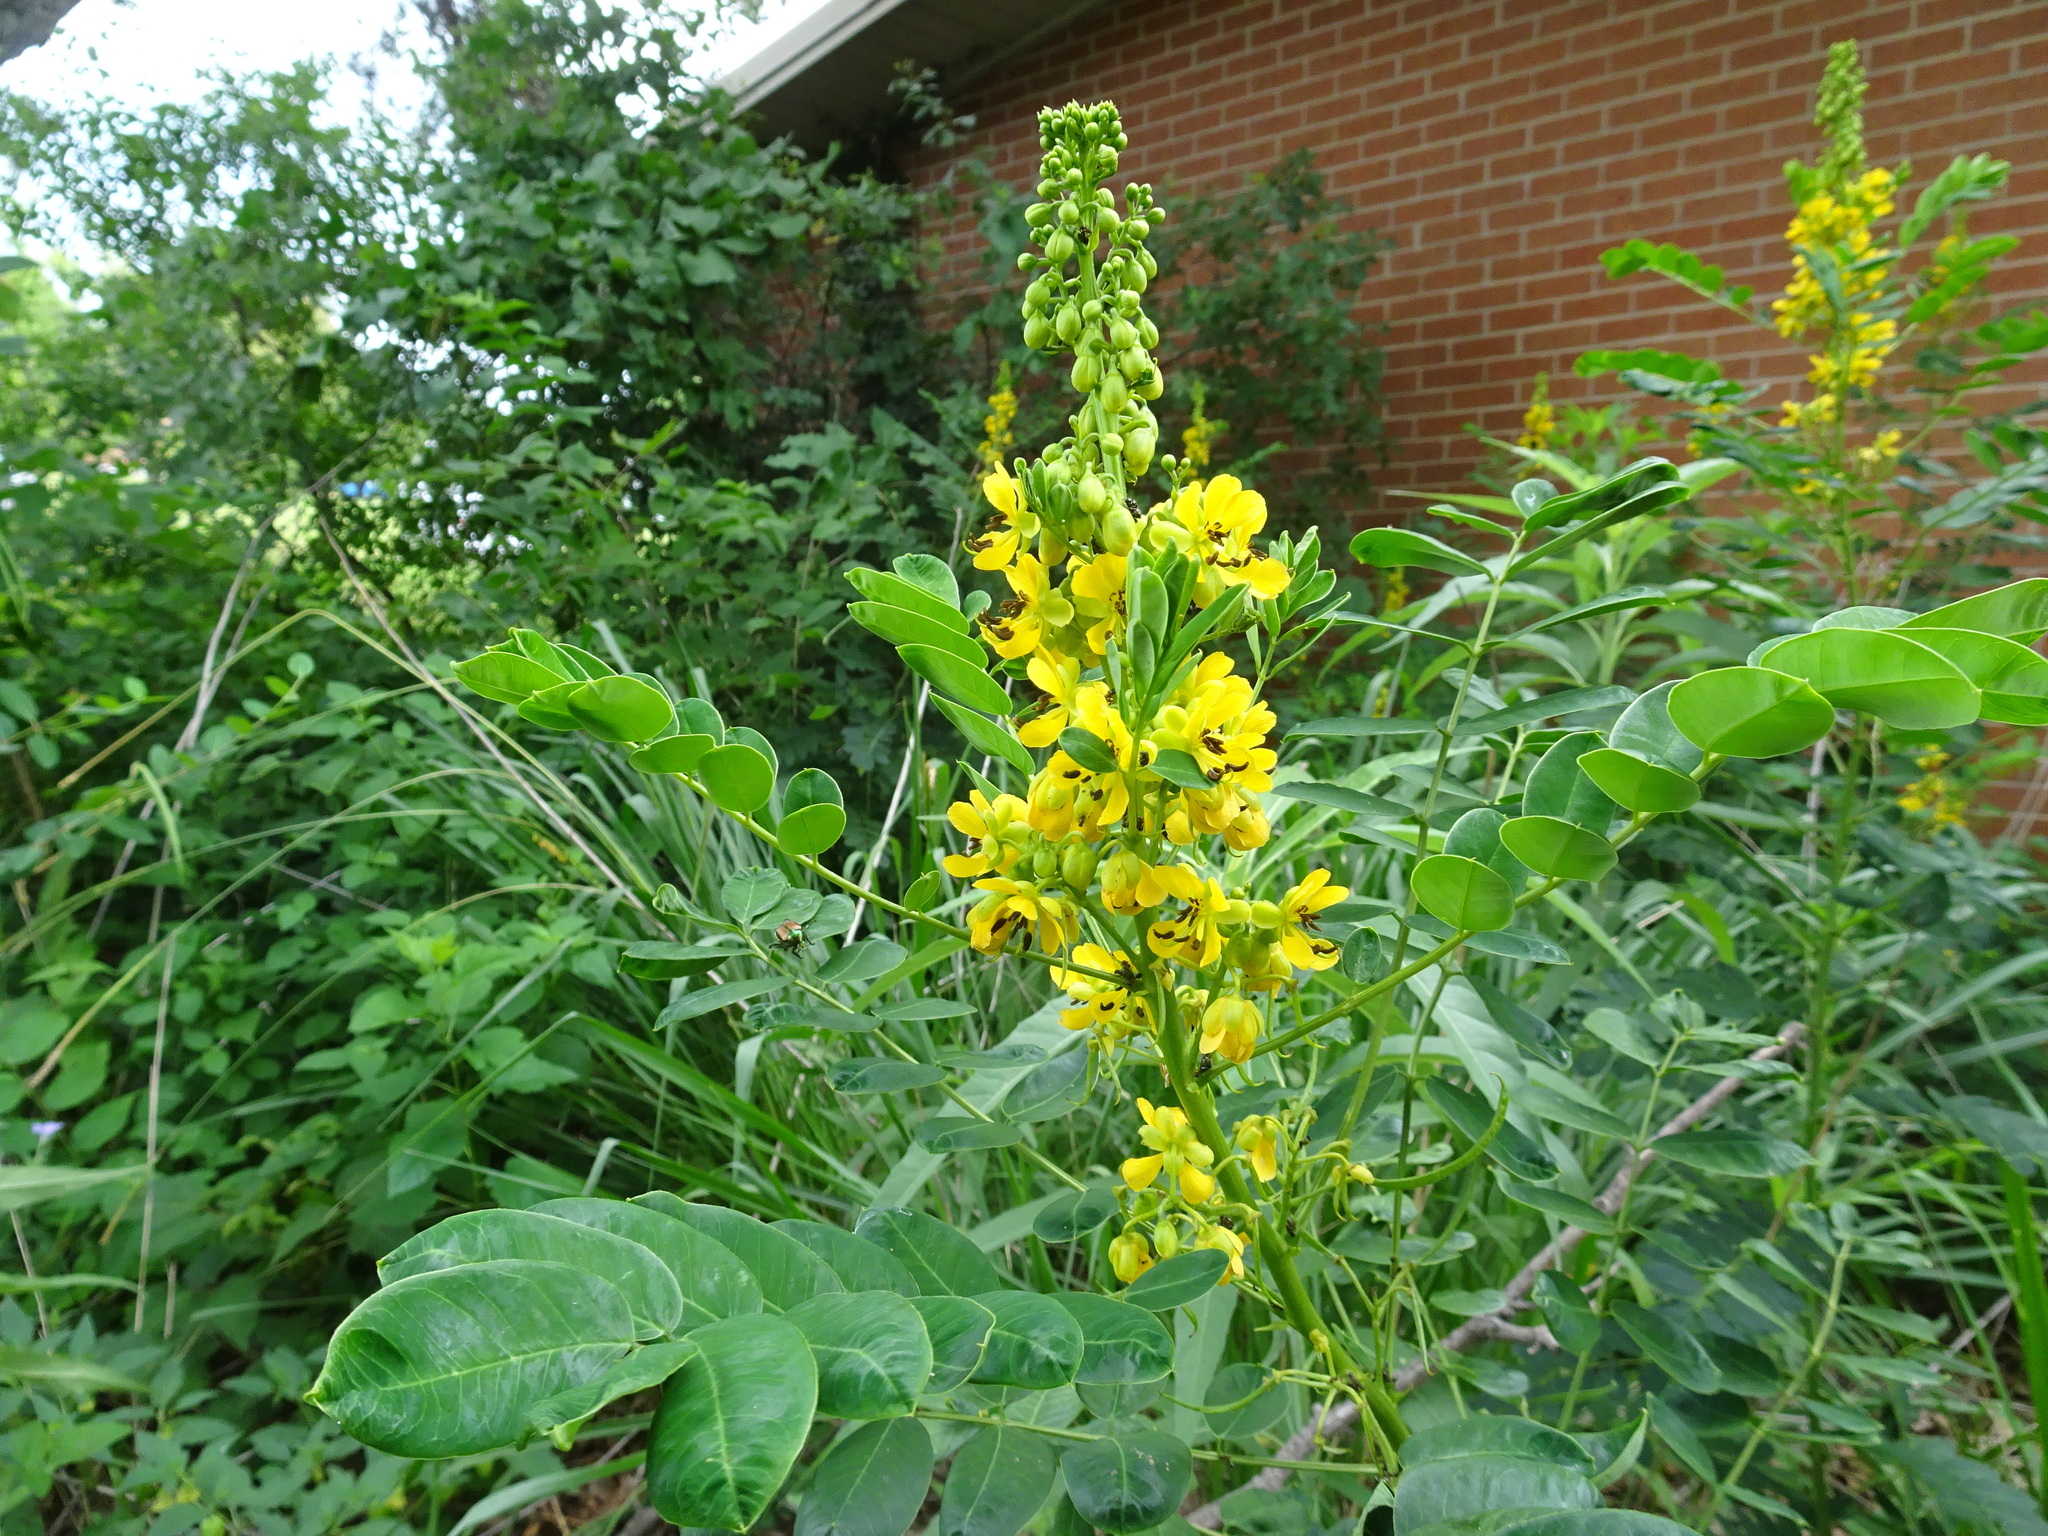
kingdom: Plantae
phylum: Tracheophyta
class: Magnoliopsida
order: Fabales
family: Fabaceae
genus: Senna
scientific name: Senna marilandica
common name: American senna
